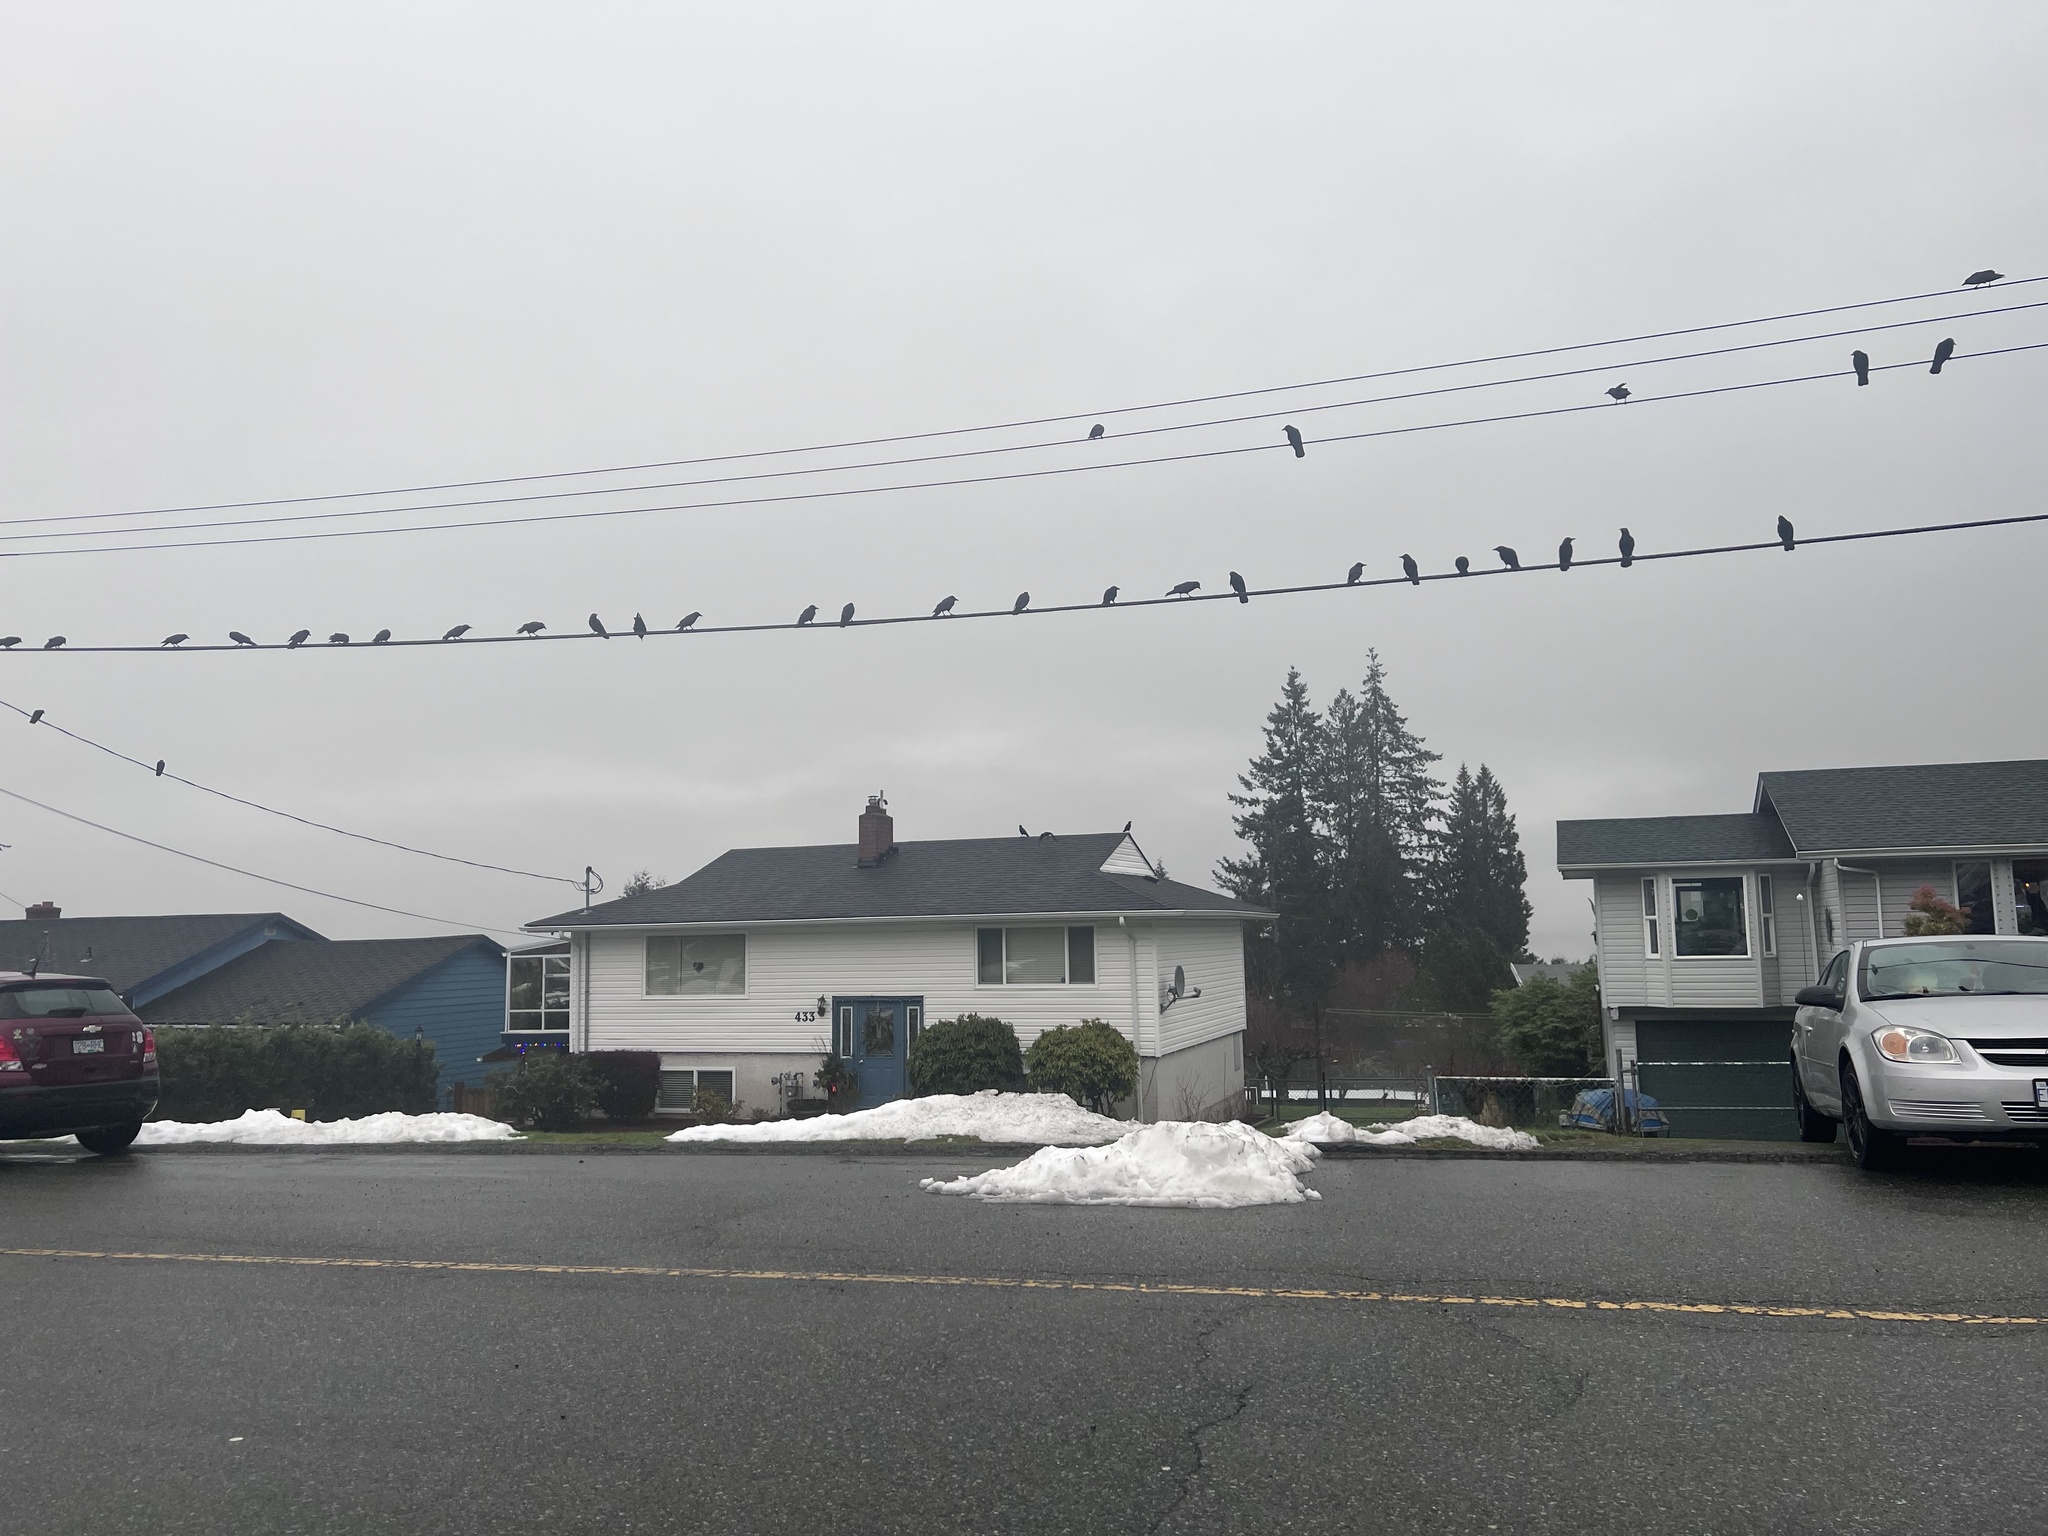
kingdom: Animalia
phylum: Chordata
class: Aves
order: Passeriformes
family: Corvidae
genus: Corvus
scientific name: Corvus brachyrhynchos
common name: American crow
